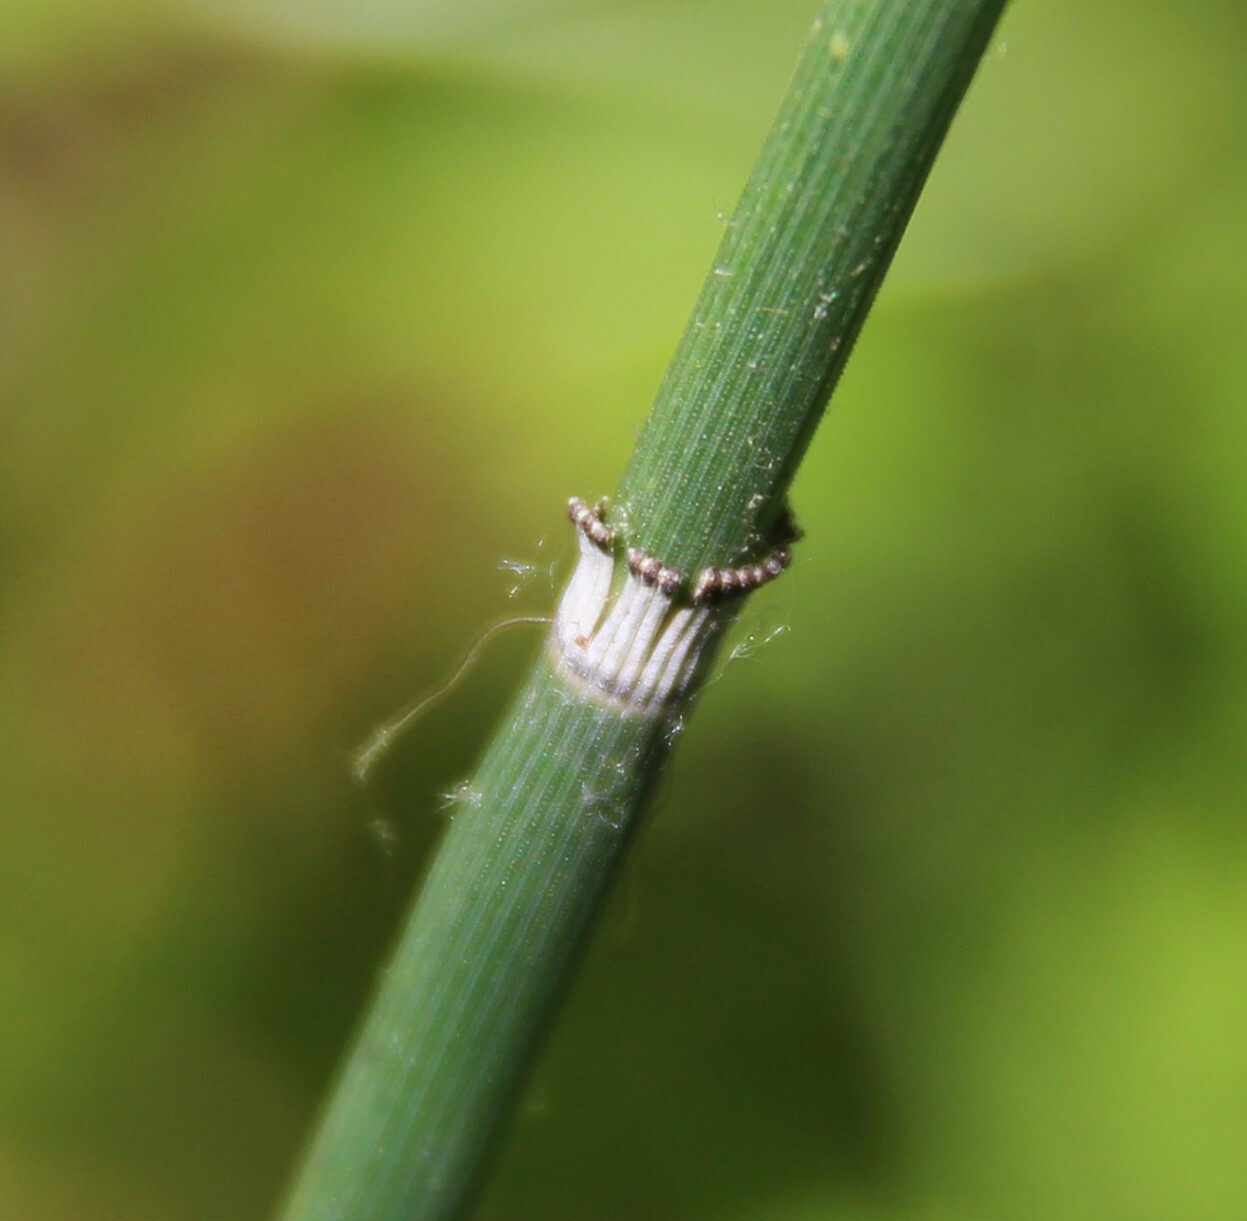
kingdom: Plantae
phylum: Tracheophyta
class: Polypodiopsida
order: Equisetales
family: Equisetaceae
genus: Equisetum
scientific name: Equisetum hyemale
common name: Rough horsetail
